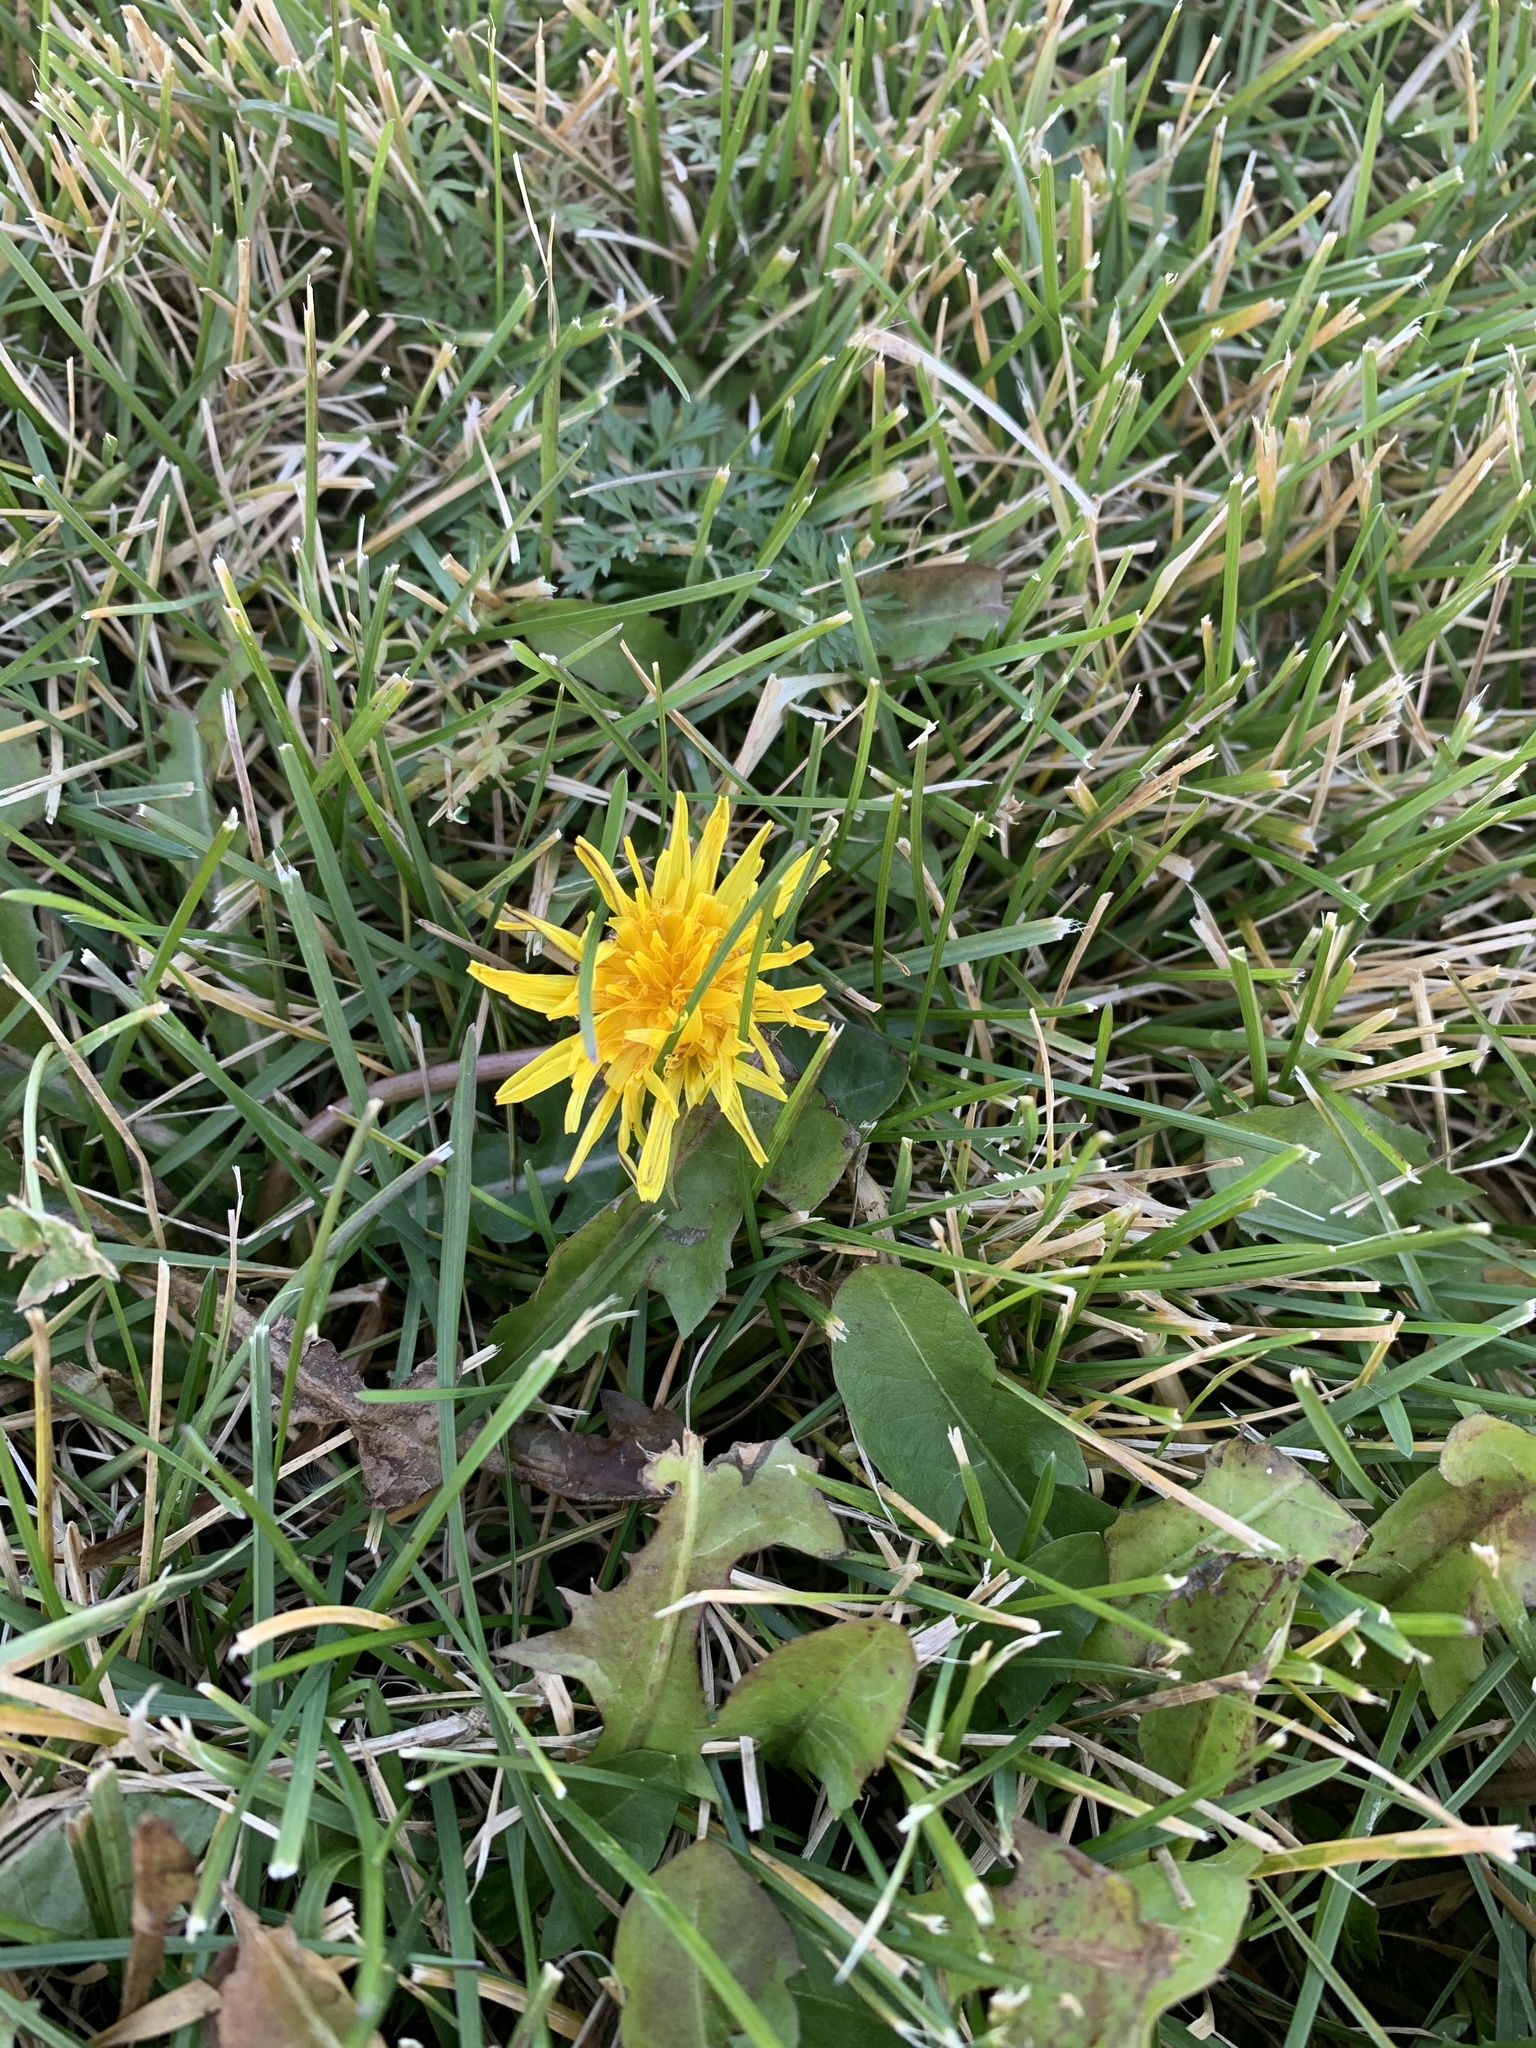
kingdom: Plantae
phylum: Tracheophyta
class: Magnoliopsida
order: Asterales
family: Asteraceae
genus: Taraxacum
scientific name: Taraxacum officinale
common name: Common dandelion
